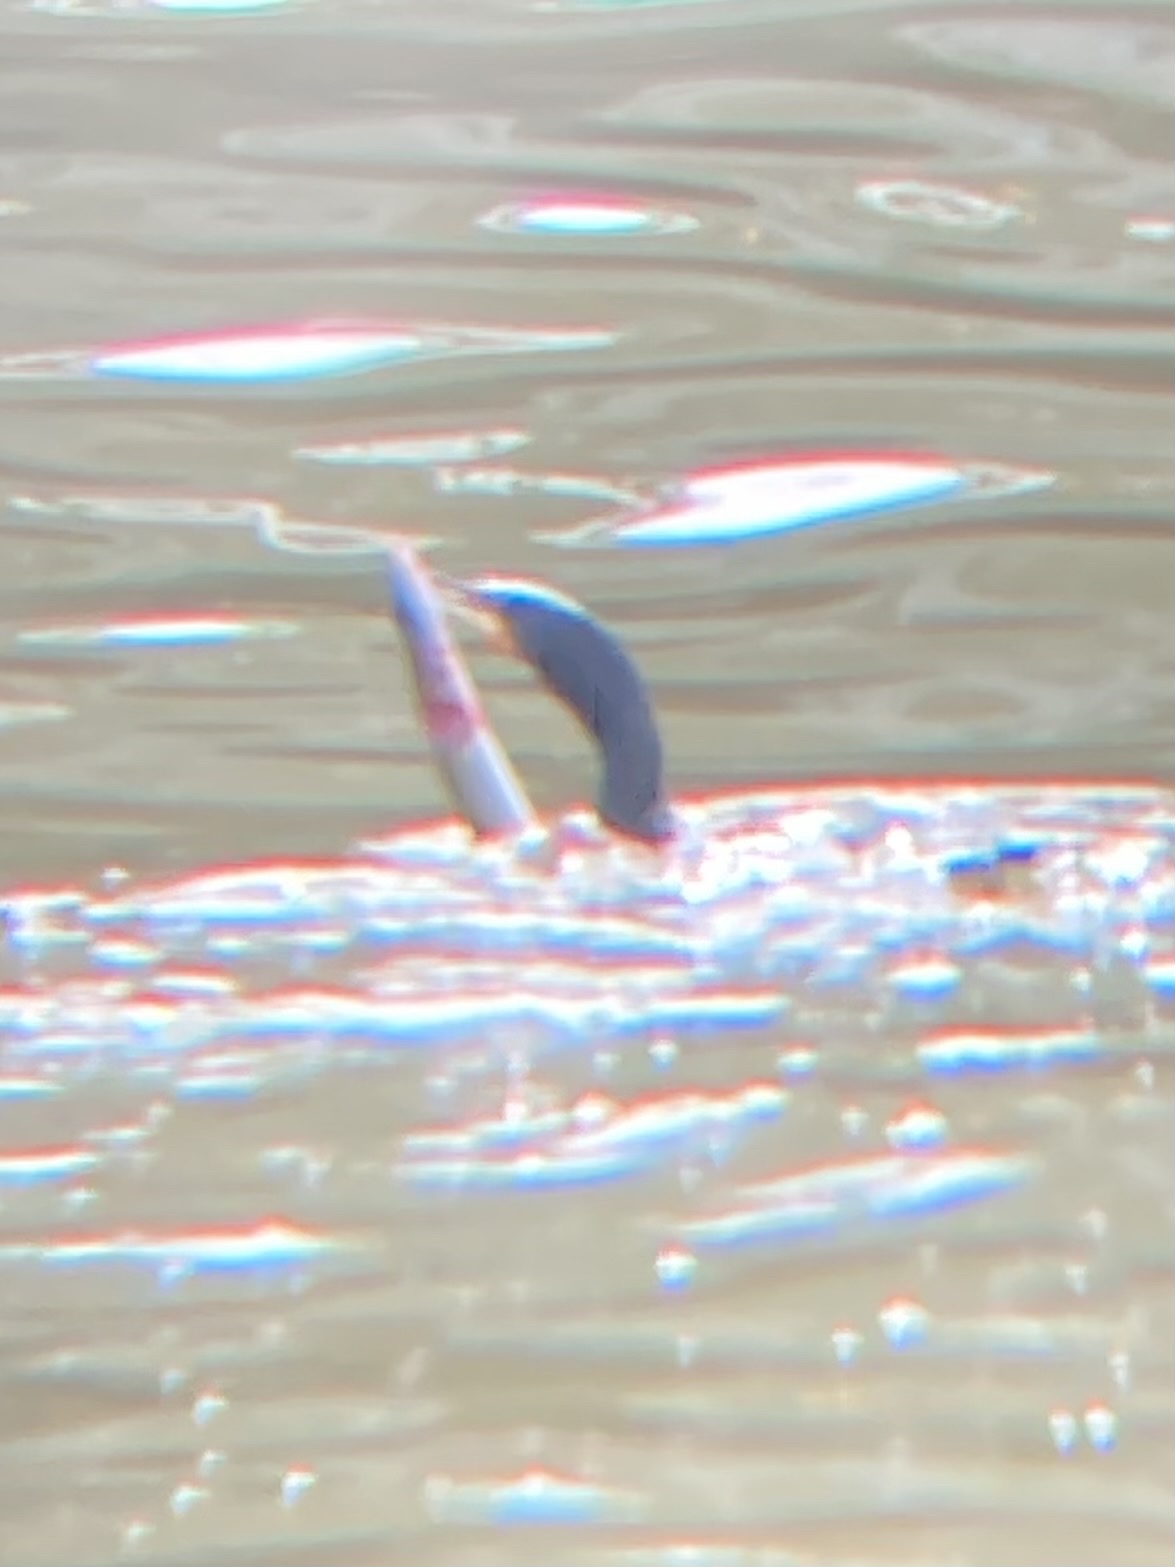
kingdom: Animalia
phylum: Chordata
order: Anguilliformes
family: Anguillidae
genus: Anguilla
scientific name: Anguilla rostrata
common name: American eel
